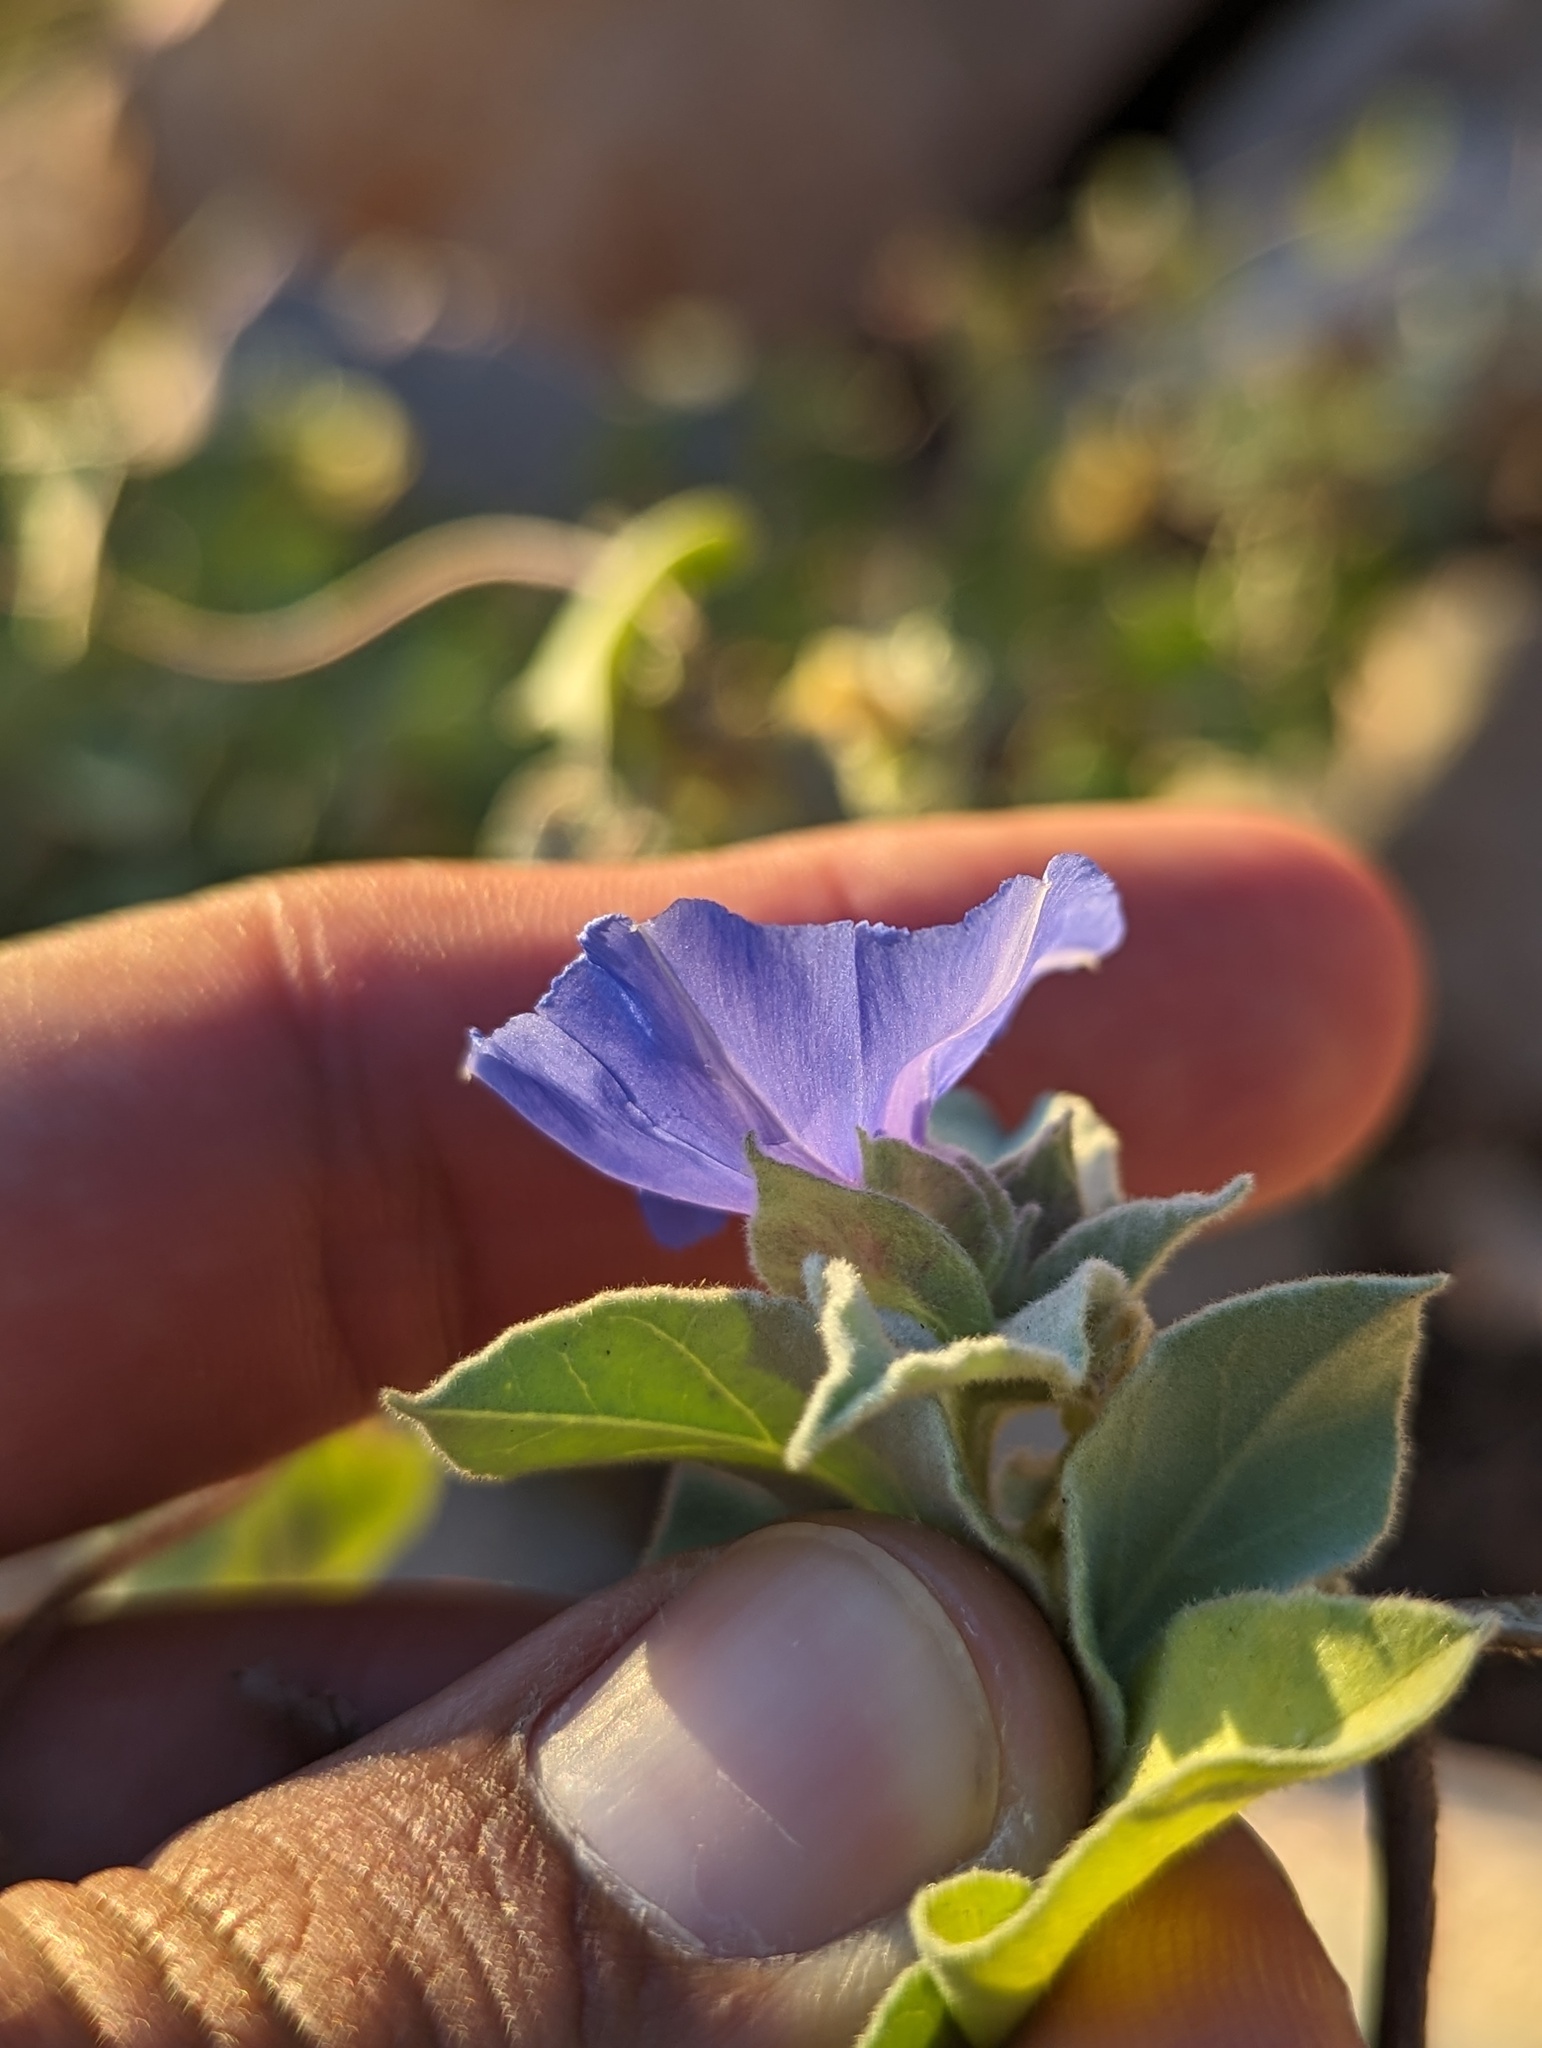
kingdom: Plantae
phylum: Tracheophyta
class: Magnoliopsida
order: Solanales
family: Convolvulaceae
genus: Jacquemontia
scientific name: Jacquemontia abutiloides
